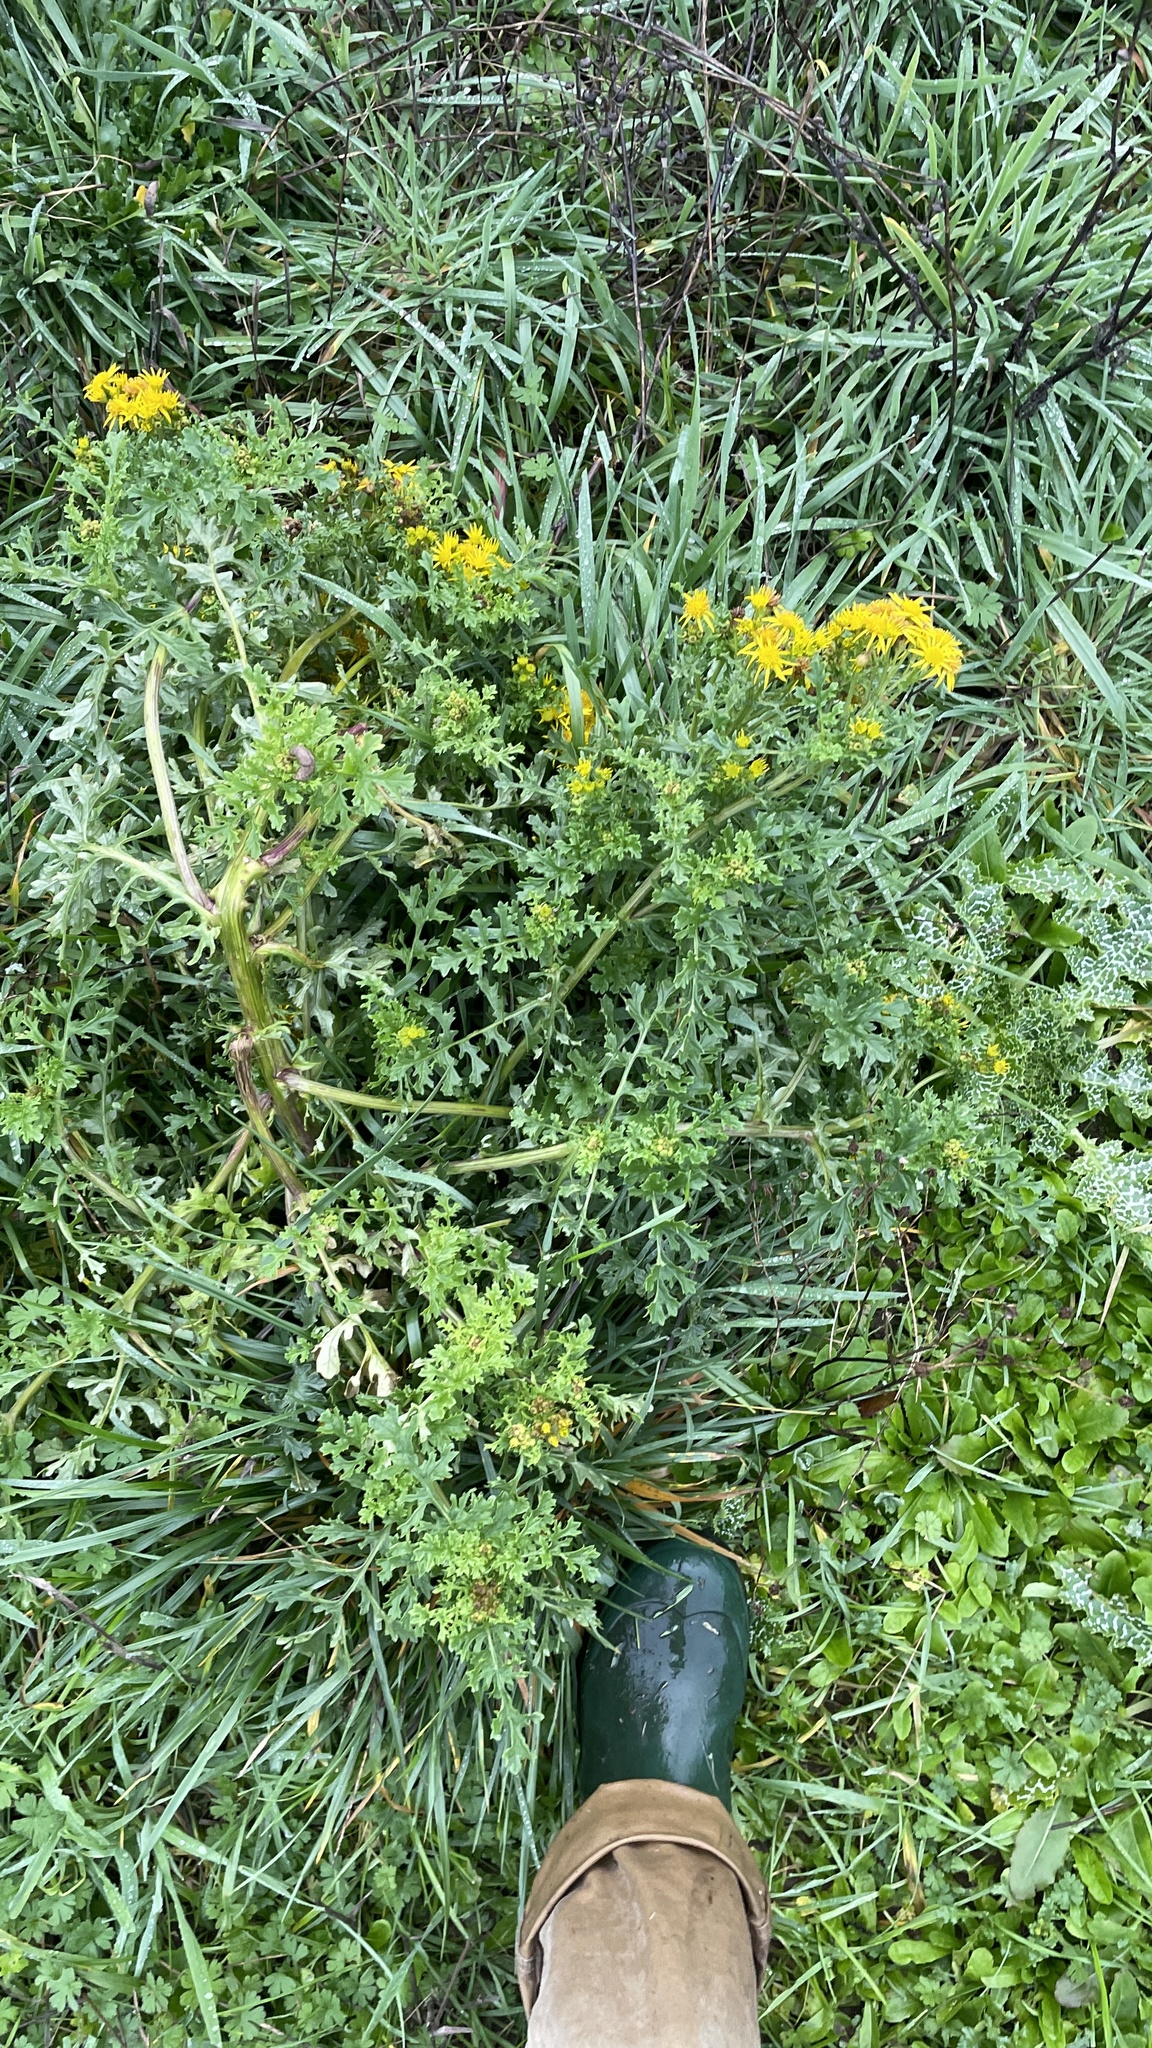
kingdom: Plantae
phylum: Tracheophyta
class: Magnoliopsida
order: Asterales
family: Asteraceae
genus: Jacobaea
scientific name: Jacobaea vulgaris
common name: Stinking willie
